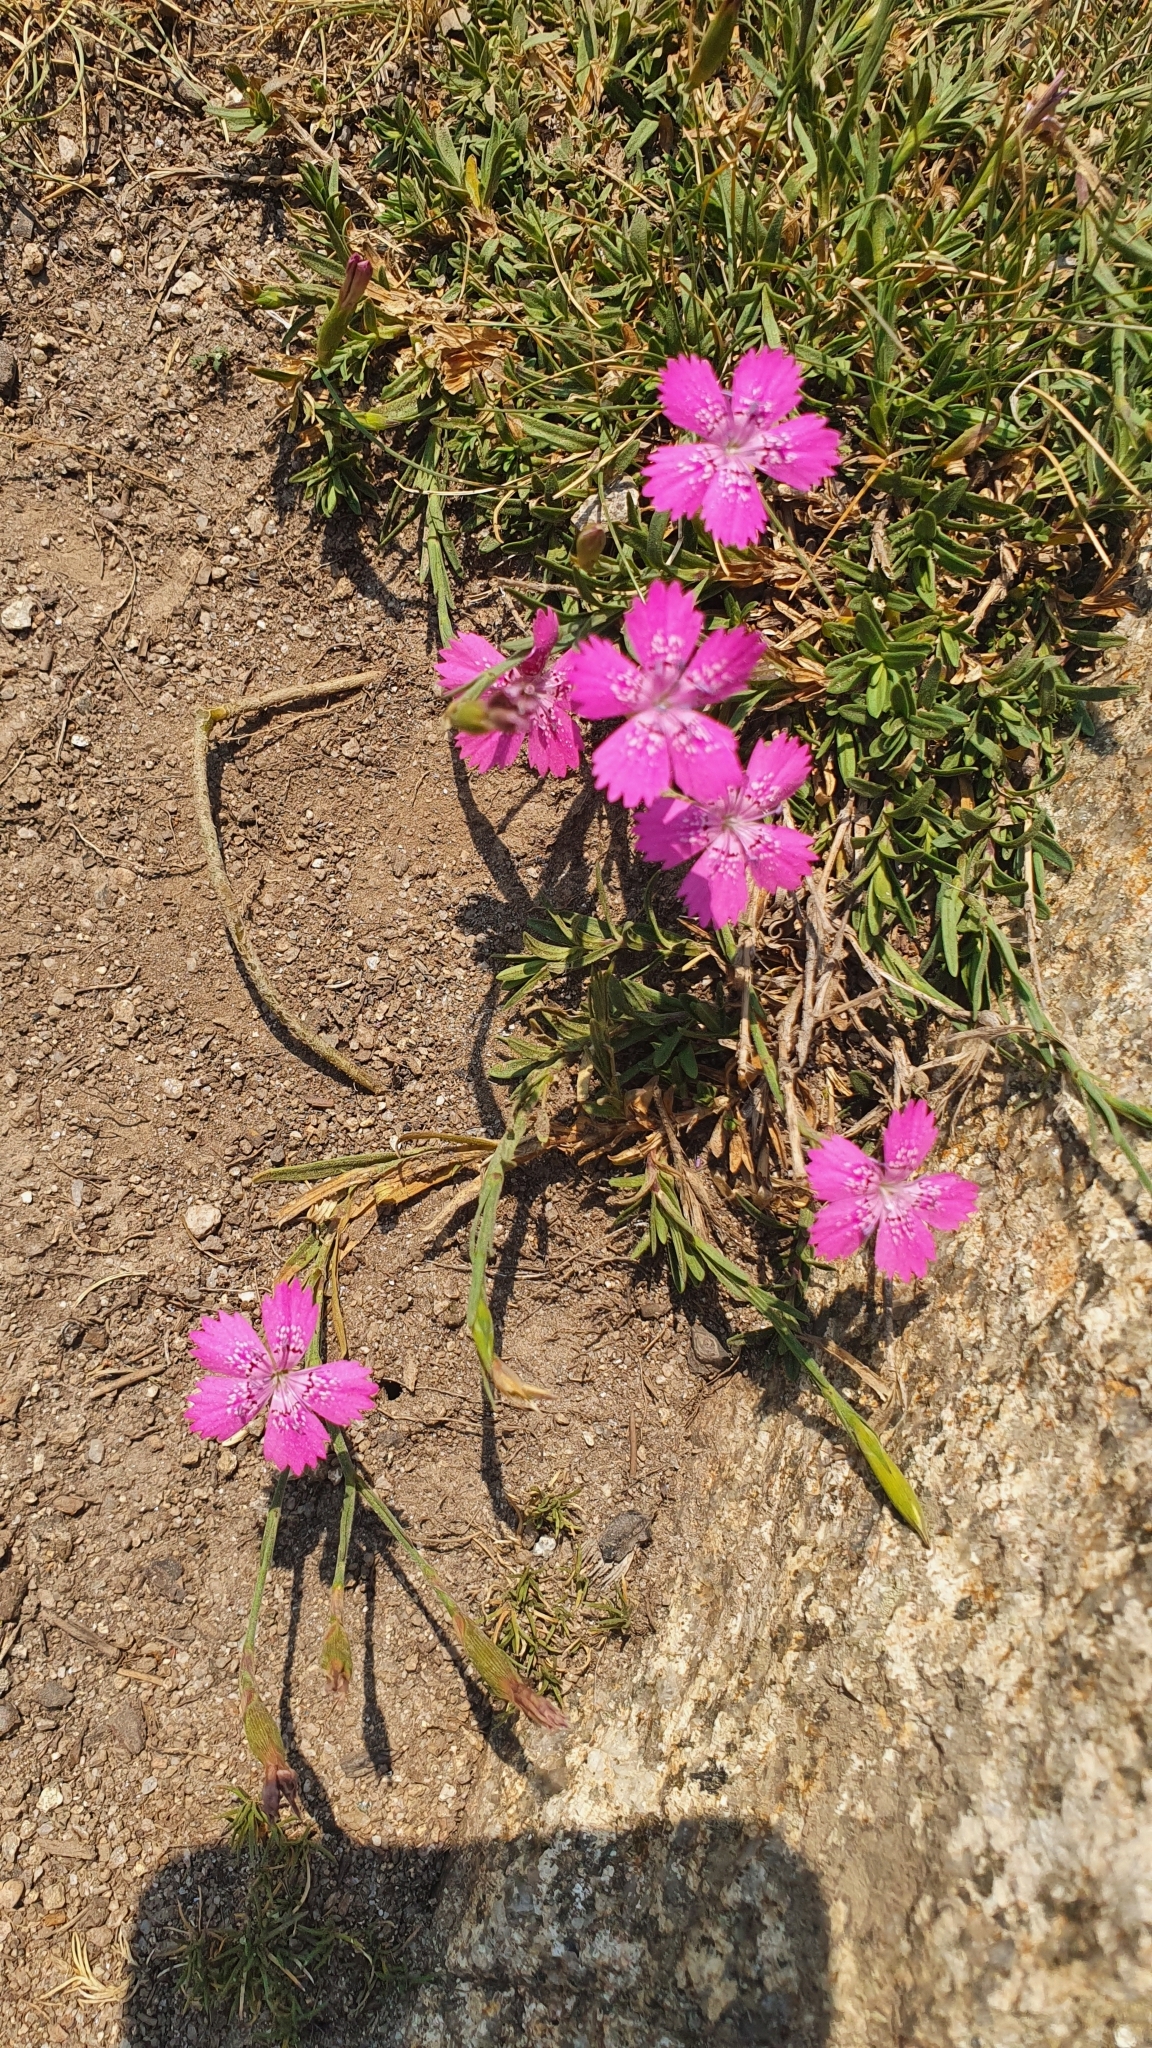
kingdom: Plantae
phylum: Tracheophyta
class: Magnoliopsida
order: Caryophyllales
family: Caryophyllaceae
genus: Dianthus
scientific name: Dianthus deltoides
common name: Maiden pink
